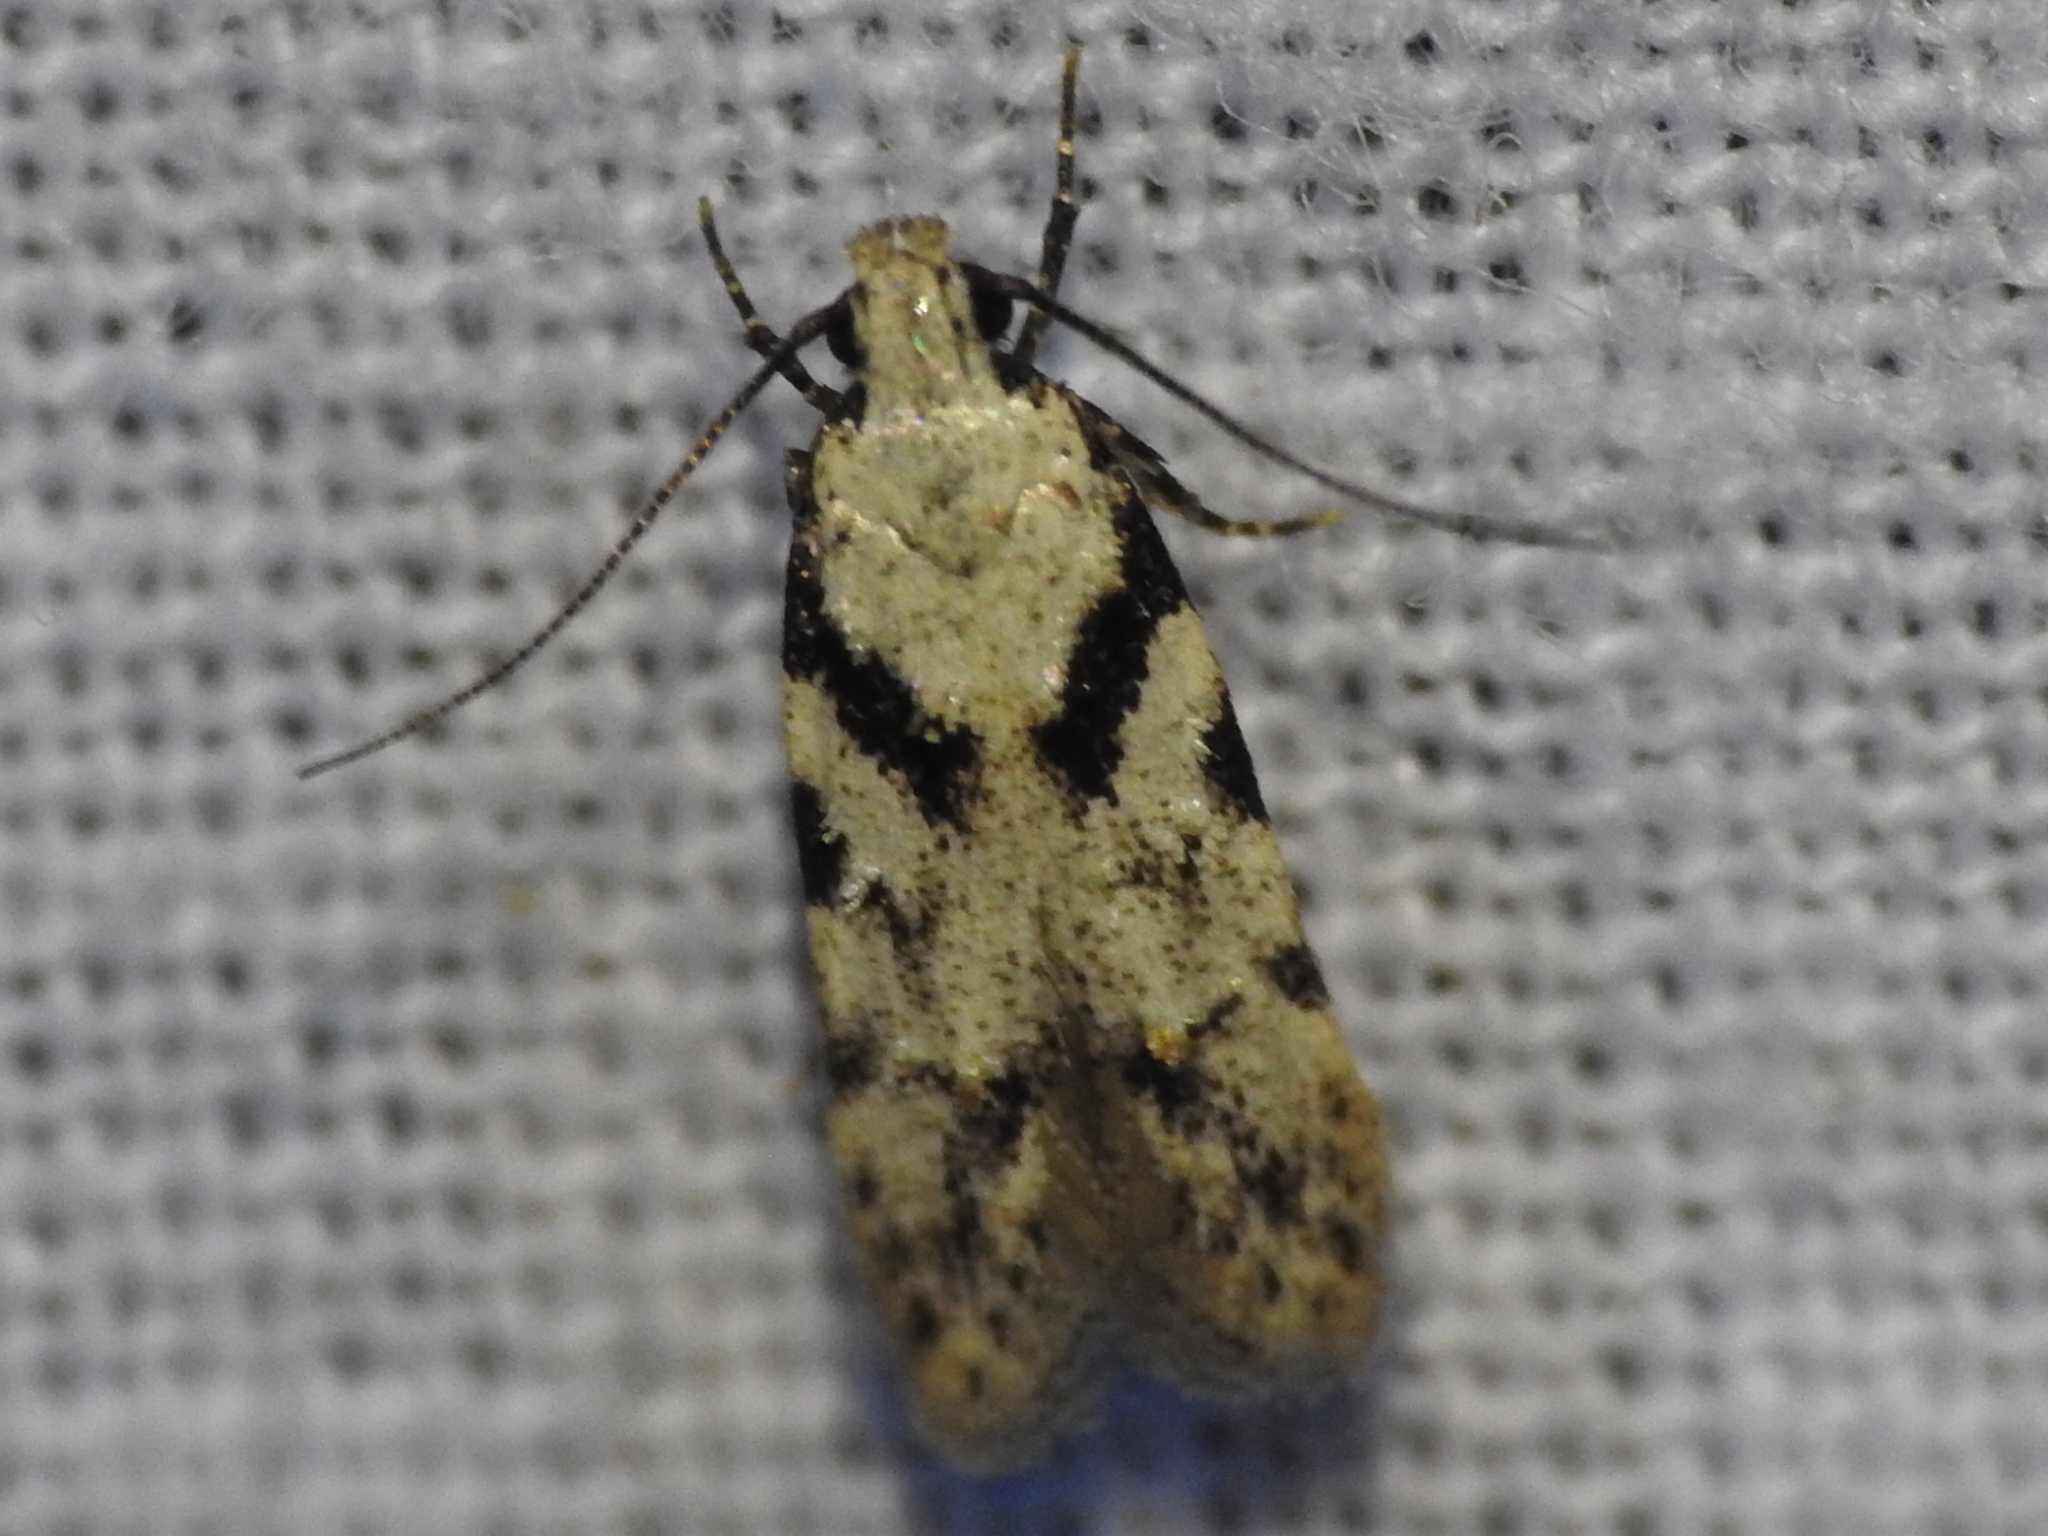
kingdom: Animalia
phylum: Arthropoda
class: Insecta
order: Lepidoptera
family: Gelechiidae
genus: Pseudotelphusa
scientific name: Pseudotelphusa palliderosacella
